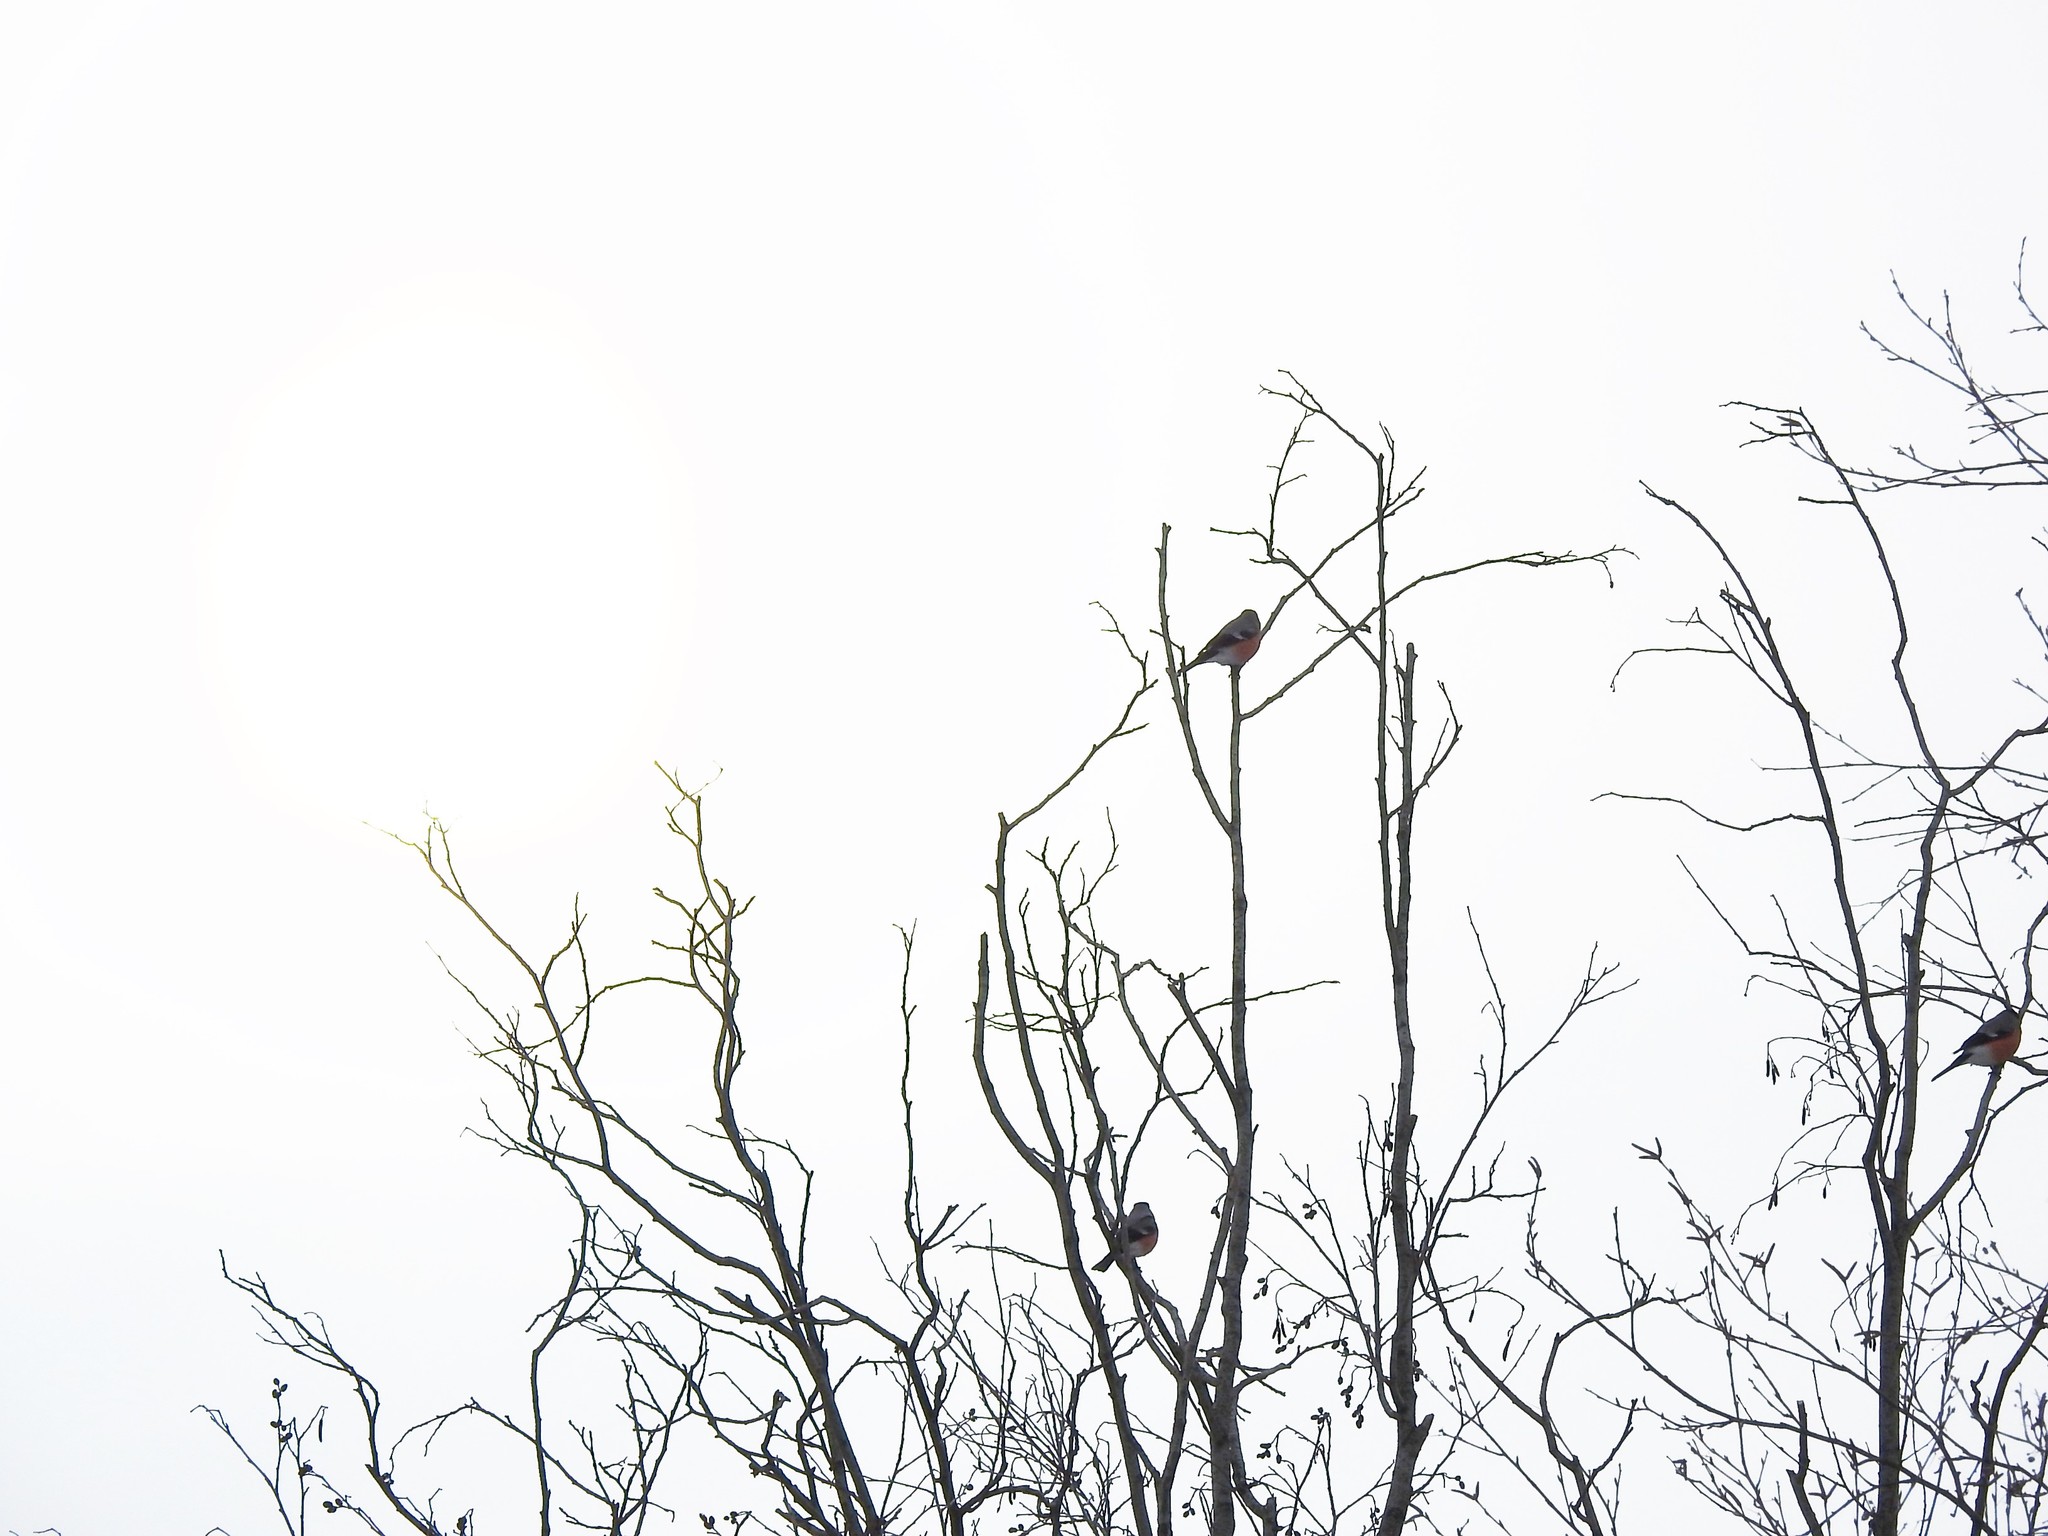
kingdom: Animalia
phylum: Chordata
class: Aves
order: Passeriformes
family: Fringillidae
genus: Pyrrhula
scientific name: Pyrrhula pyrrhula
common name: Eurasian bullfinch
